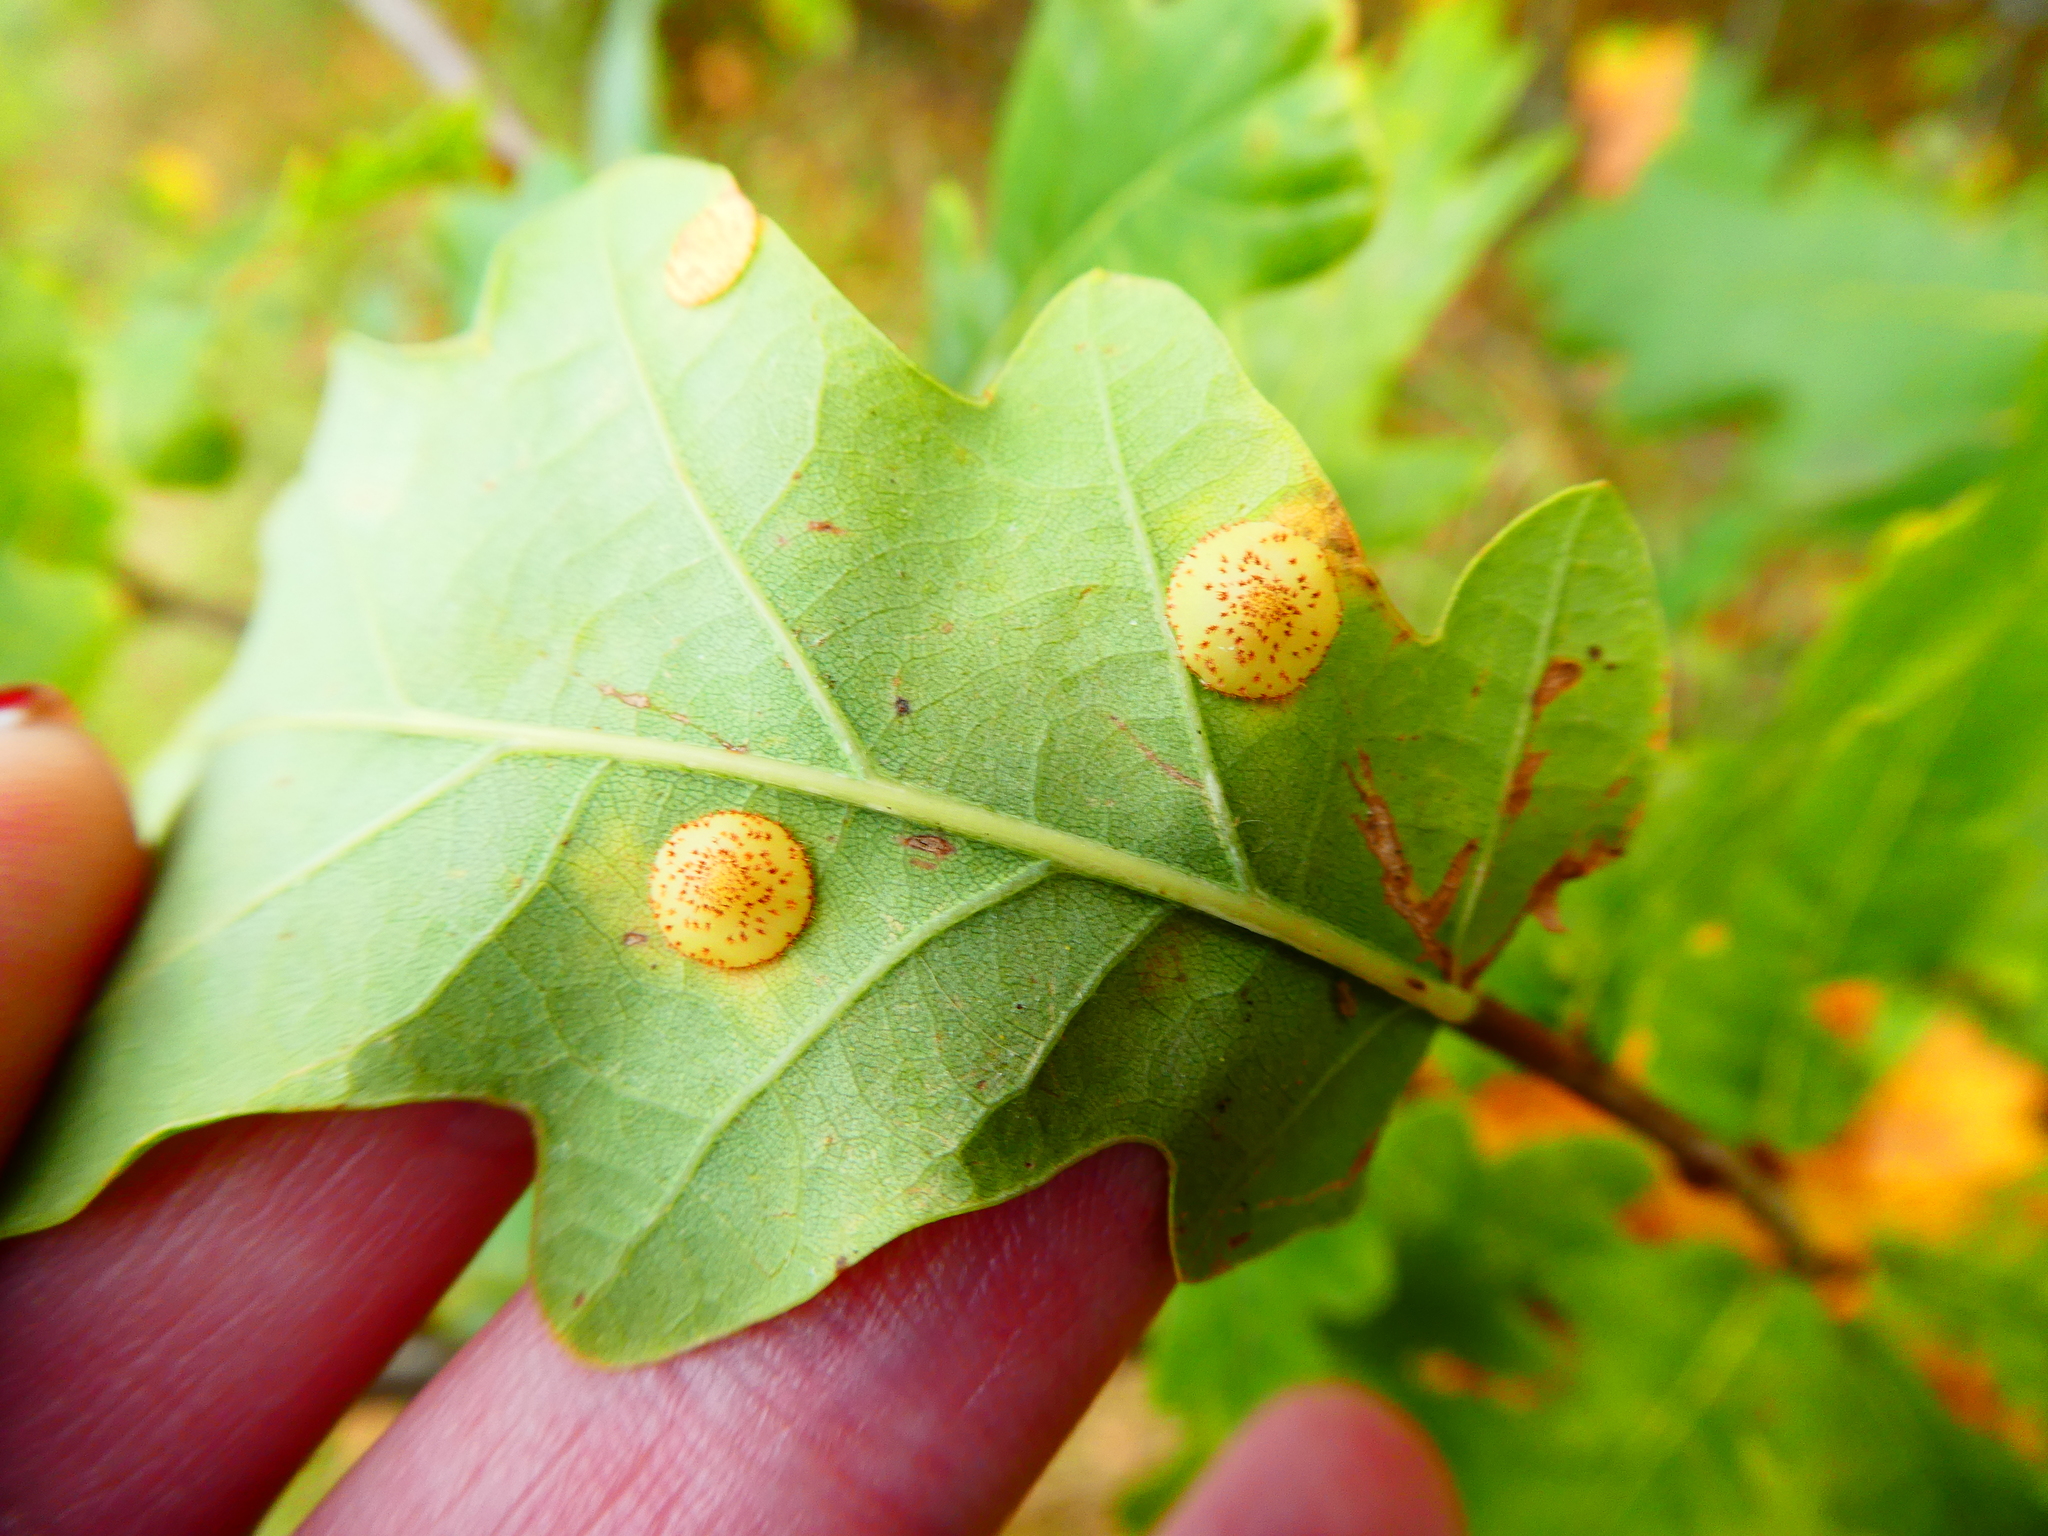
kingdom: Animalia
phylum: Arthropoda
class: Insecta
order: Hymenoptera
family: Cynipidae
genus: Neuroterus
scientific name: Neuroterus quercusbaccarum
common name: Common spangle gall
